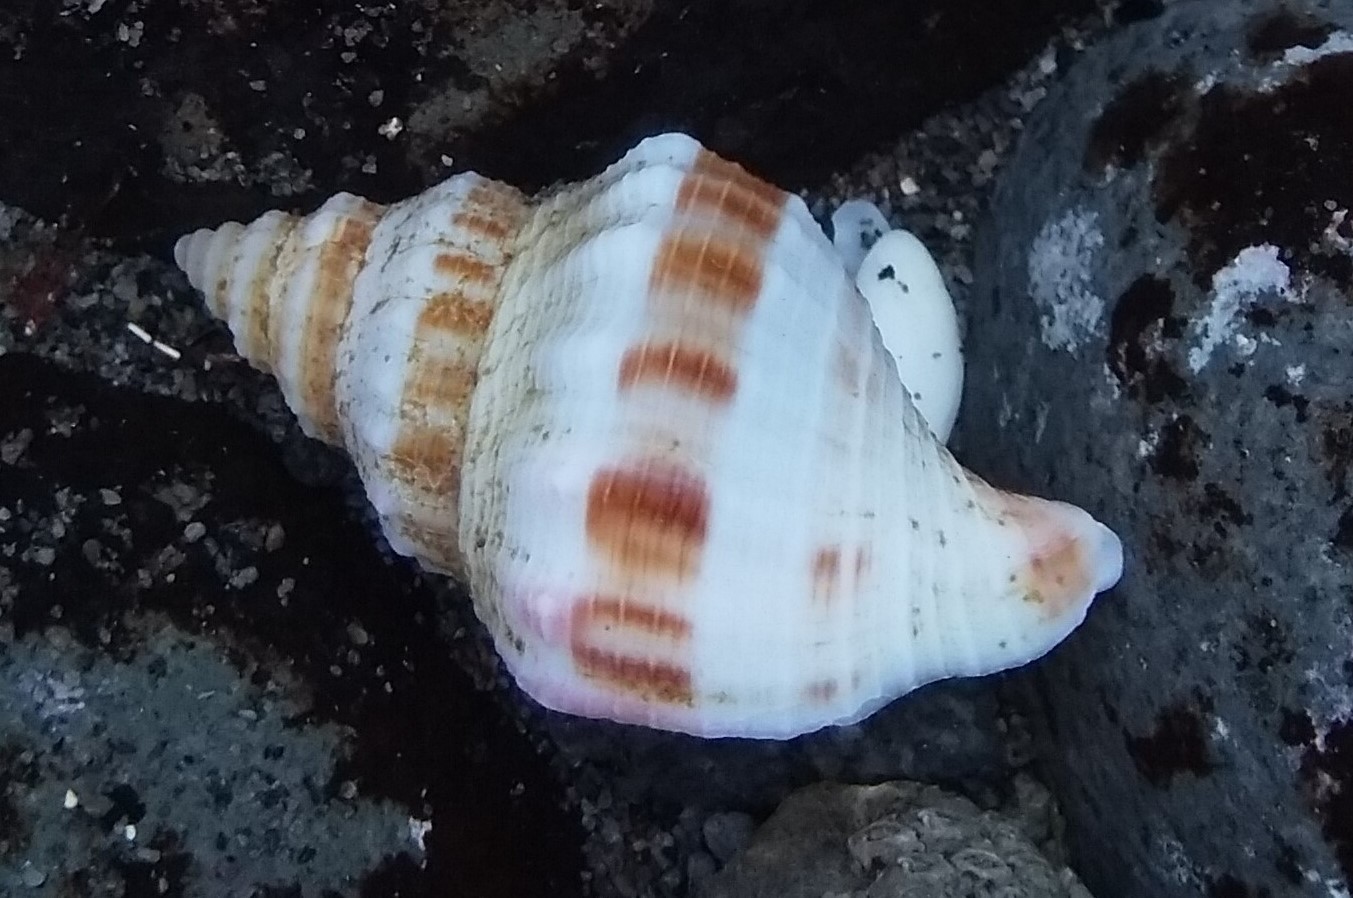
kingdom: Animalia
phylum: Mollusca
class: Gastropoda
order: Neogastropoda
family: Prosiphonidae
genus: Austrofusus
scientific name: Austrofusus glans
